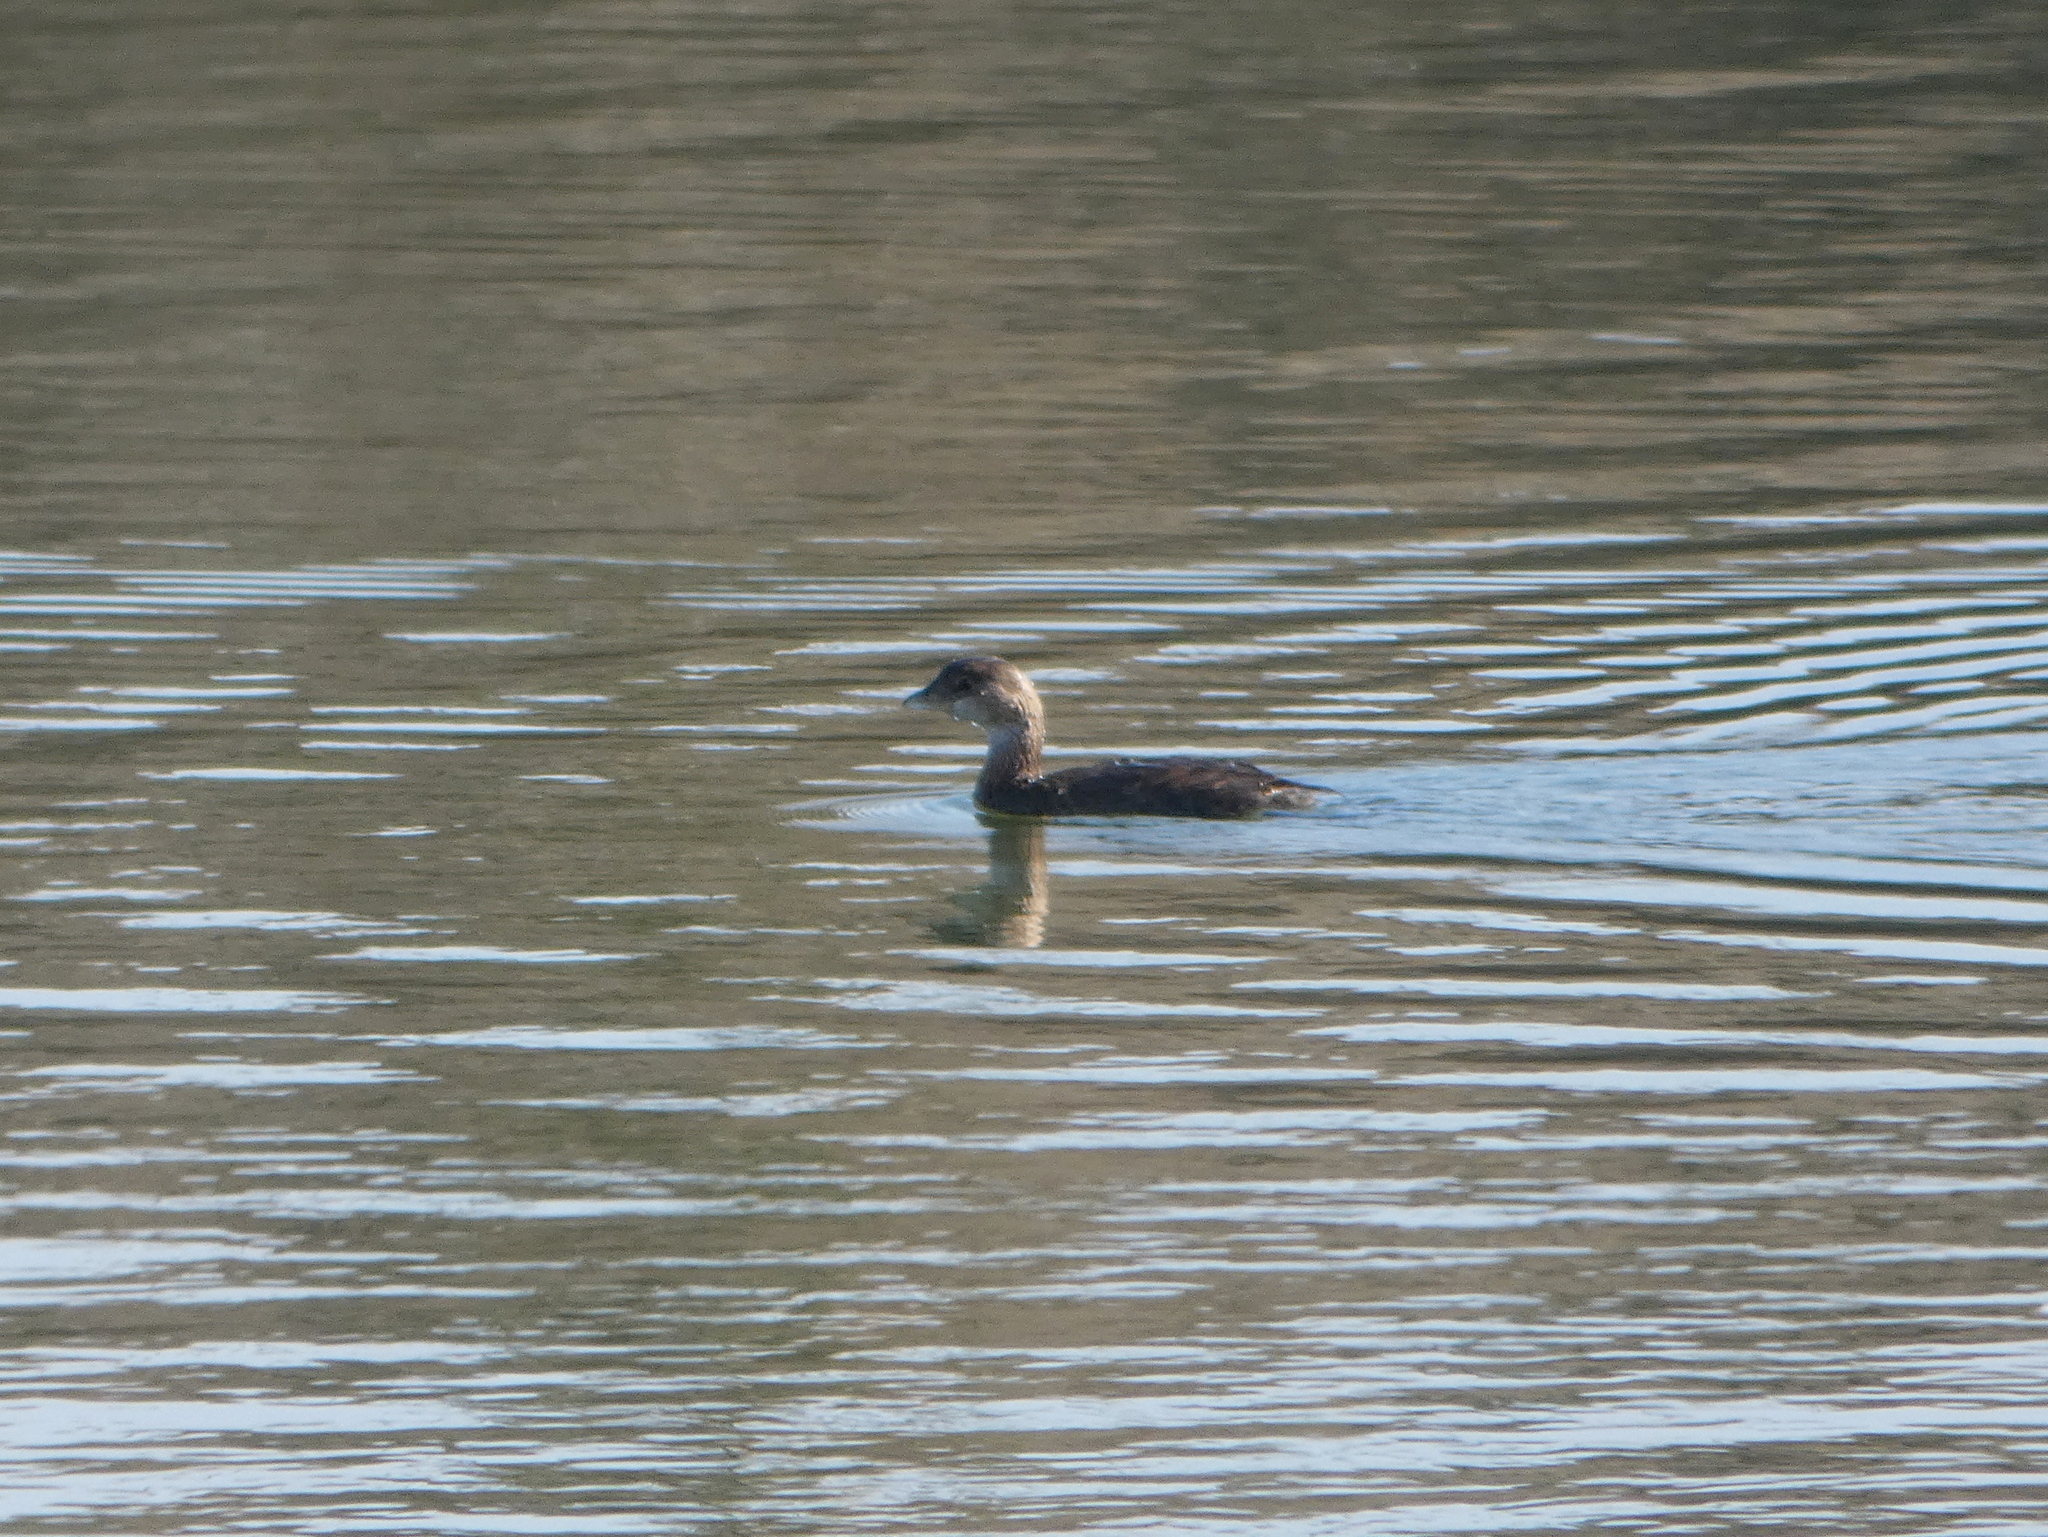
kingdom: Animalia
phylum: Chordata
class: Aves
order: Podicipediformes
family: Podicipedidae
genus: Podilymbus
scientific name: Podilymbus podiceps
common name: Pied-billed grebe
